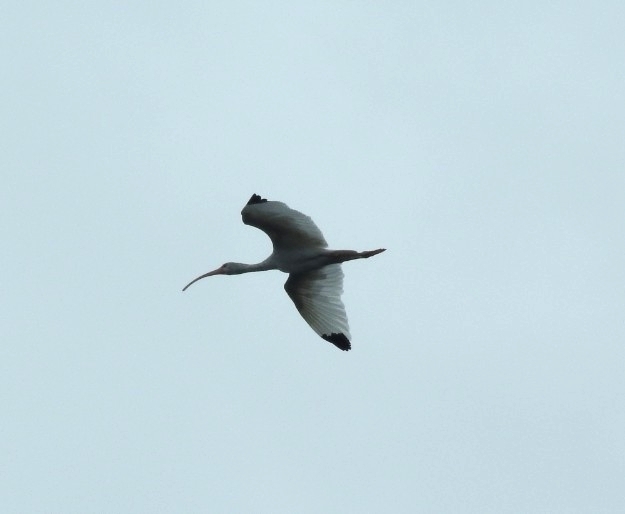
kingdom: Animalia
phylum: Chordata
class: Aves
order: Pelecaniformes
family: Threskiornithidae
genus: Eudocimus
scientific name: Eudocimus albus
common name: White ibis
